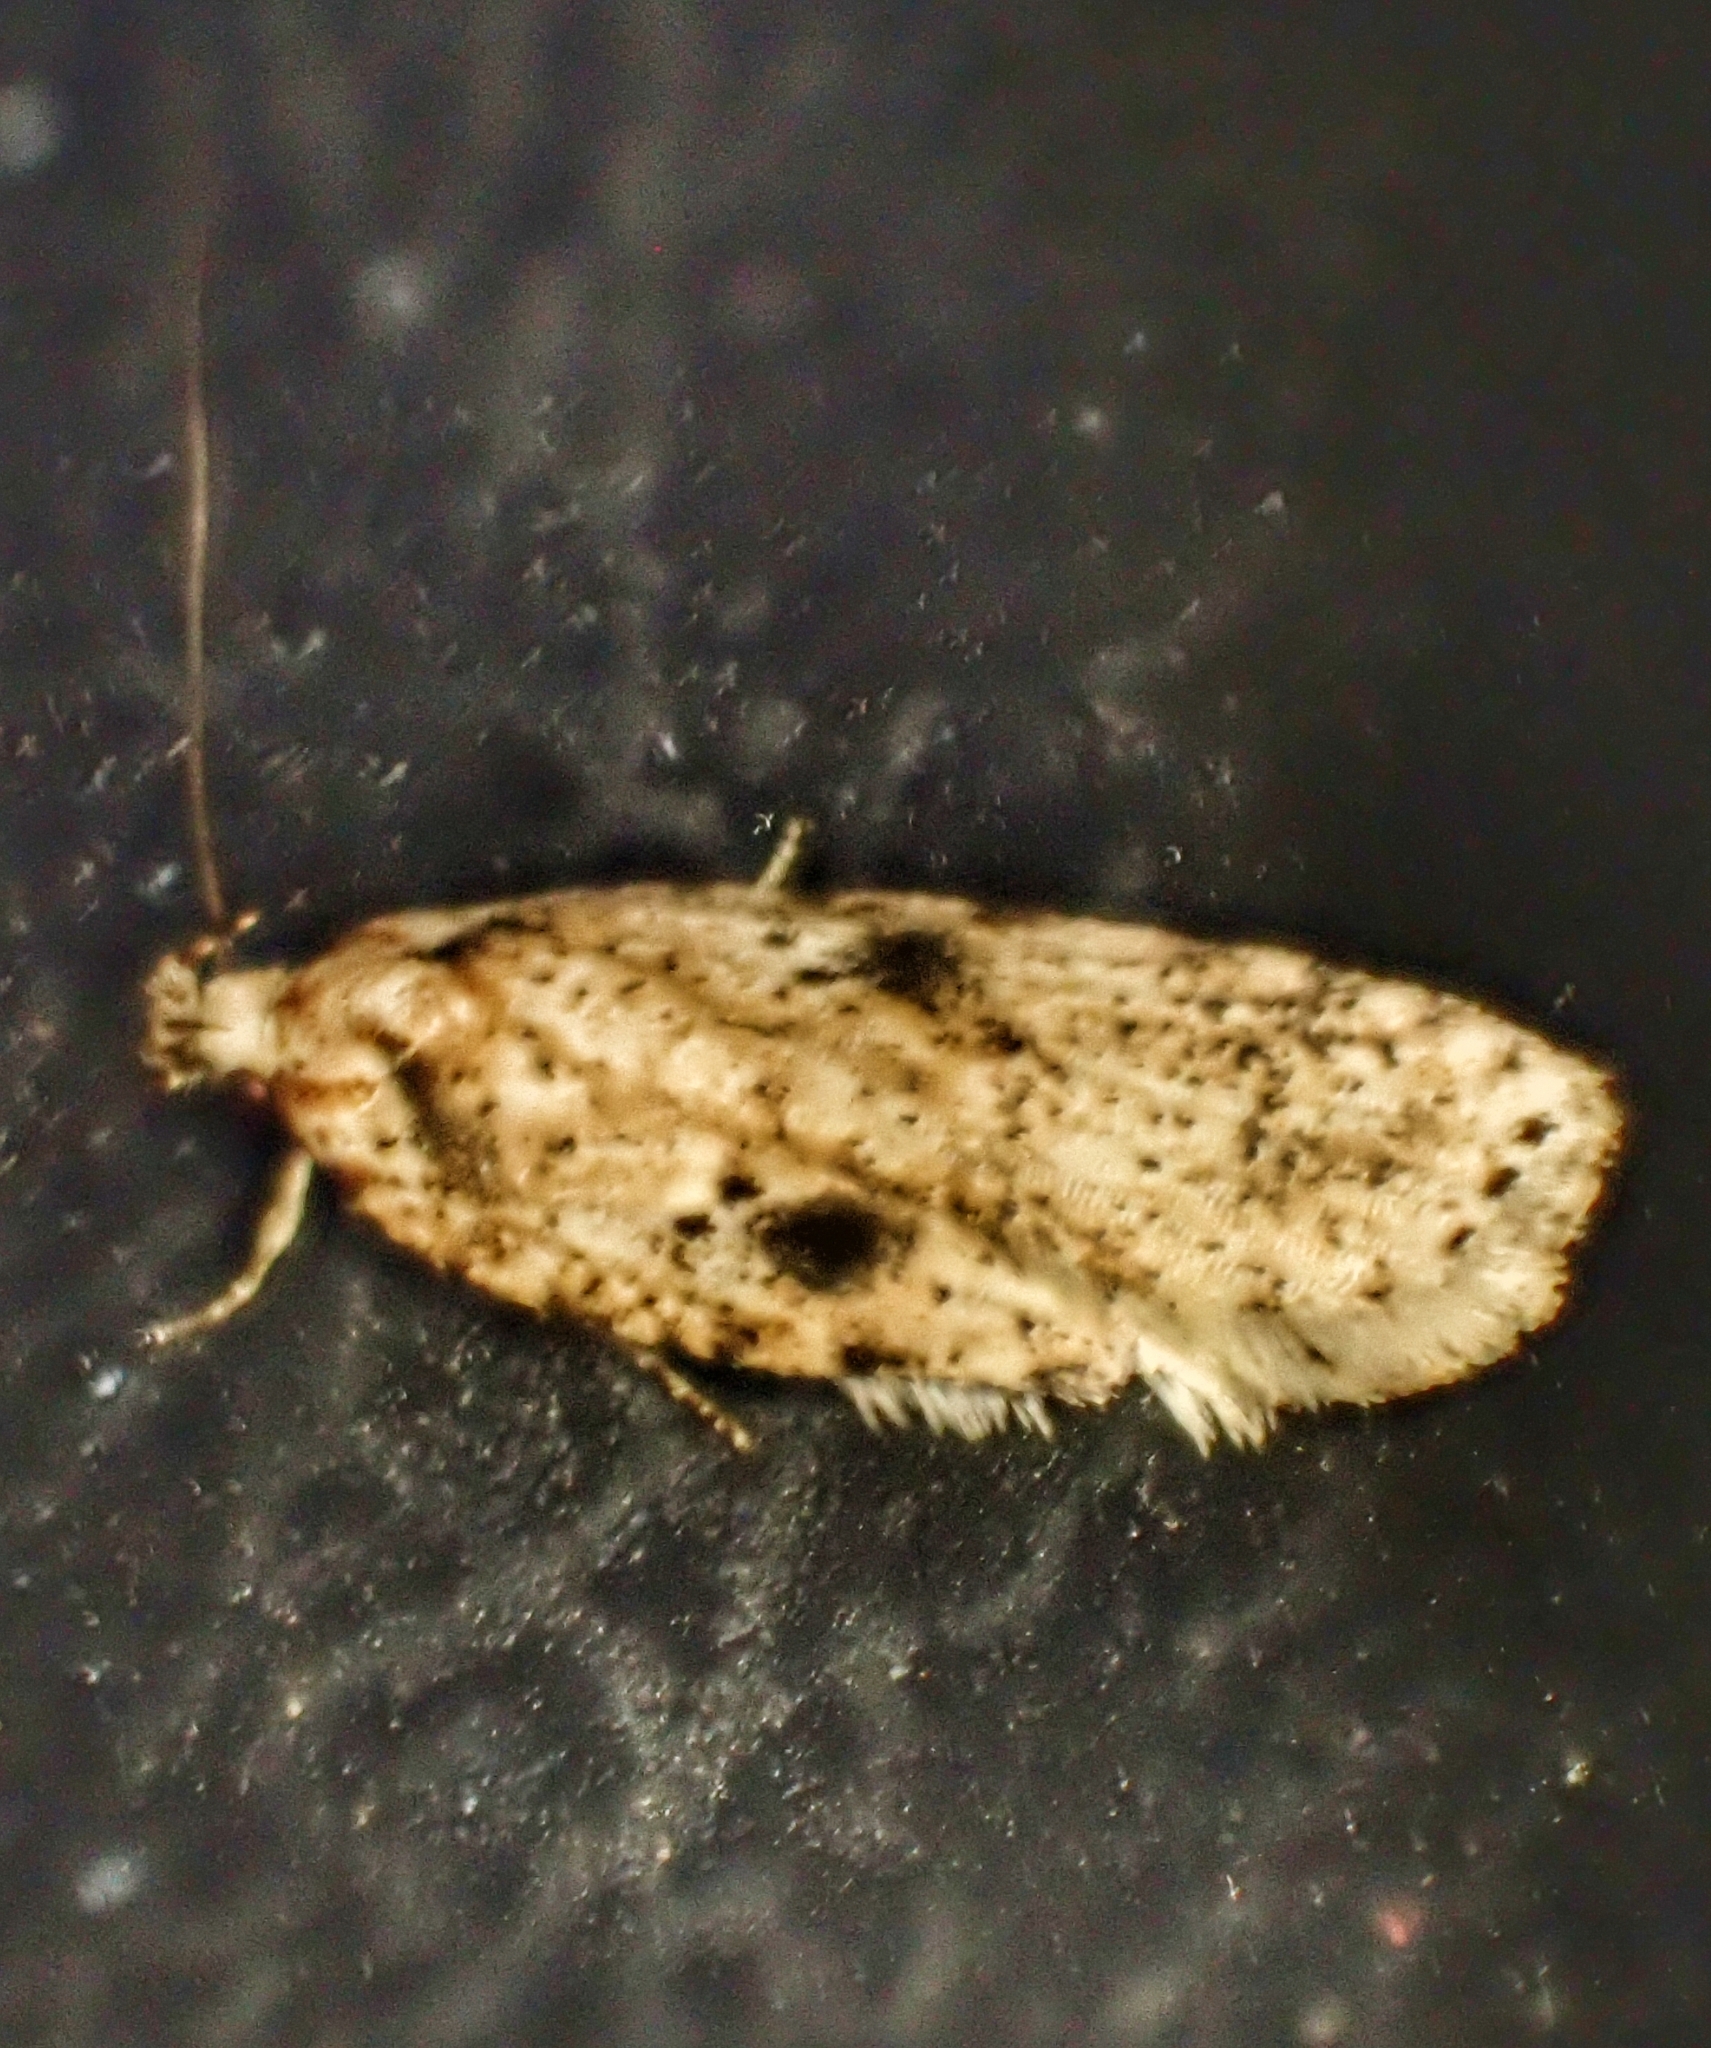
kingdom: Animalia
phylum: Arthropoda
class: Insecta
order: Lepidoptera
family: Depressariidae
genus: Agonopterix
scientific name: Agonopterix arenella
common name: Brindled flat-body
